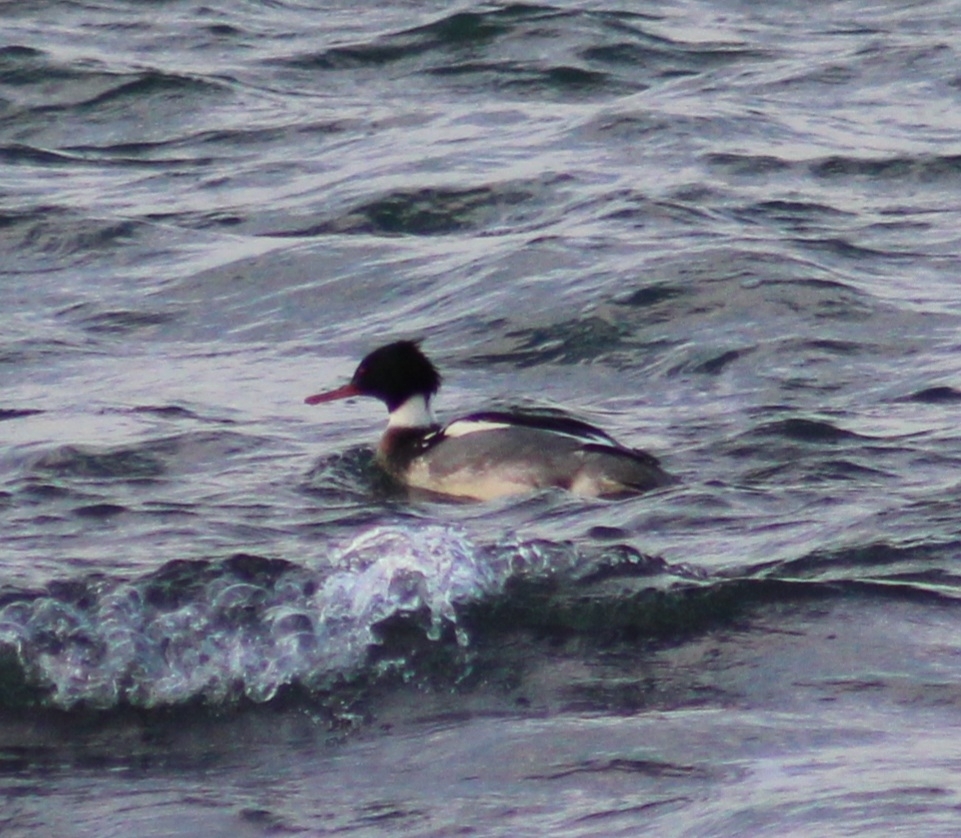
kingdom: Animalia
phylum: Chordata
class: Aves
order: Anseriformes
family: Anatidae
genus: Mergus
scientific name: Mergus serrator
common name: Red-breasted merganser
